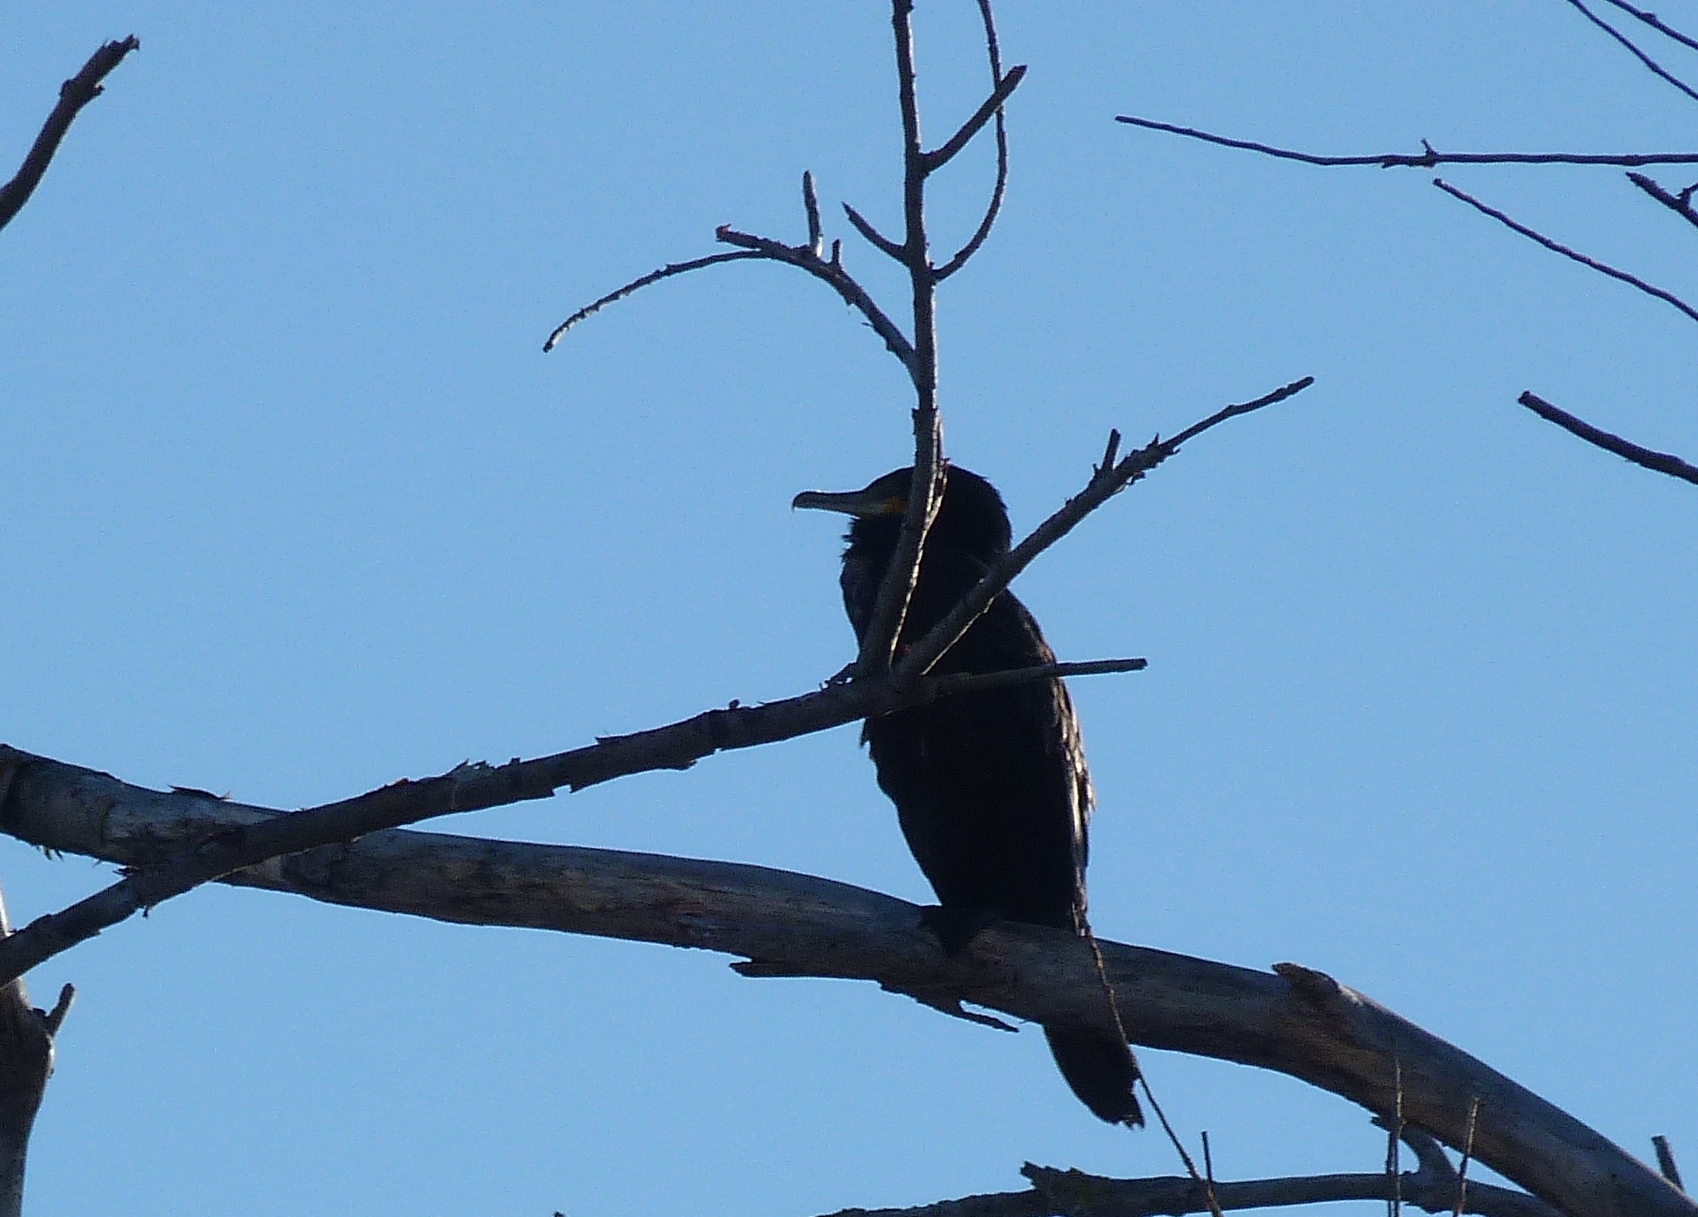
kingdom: Animalia
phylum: Chordata
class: Aves
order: Suliformes
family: Phalacrocoracidae
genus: Phalacrocorax
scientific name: Phalacrocorax carbo
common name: Great cormorant
